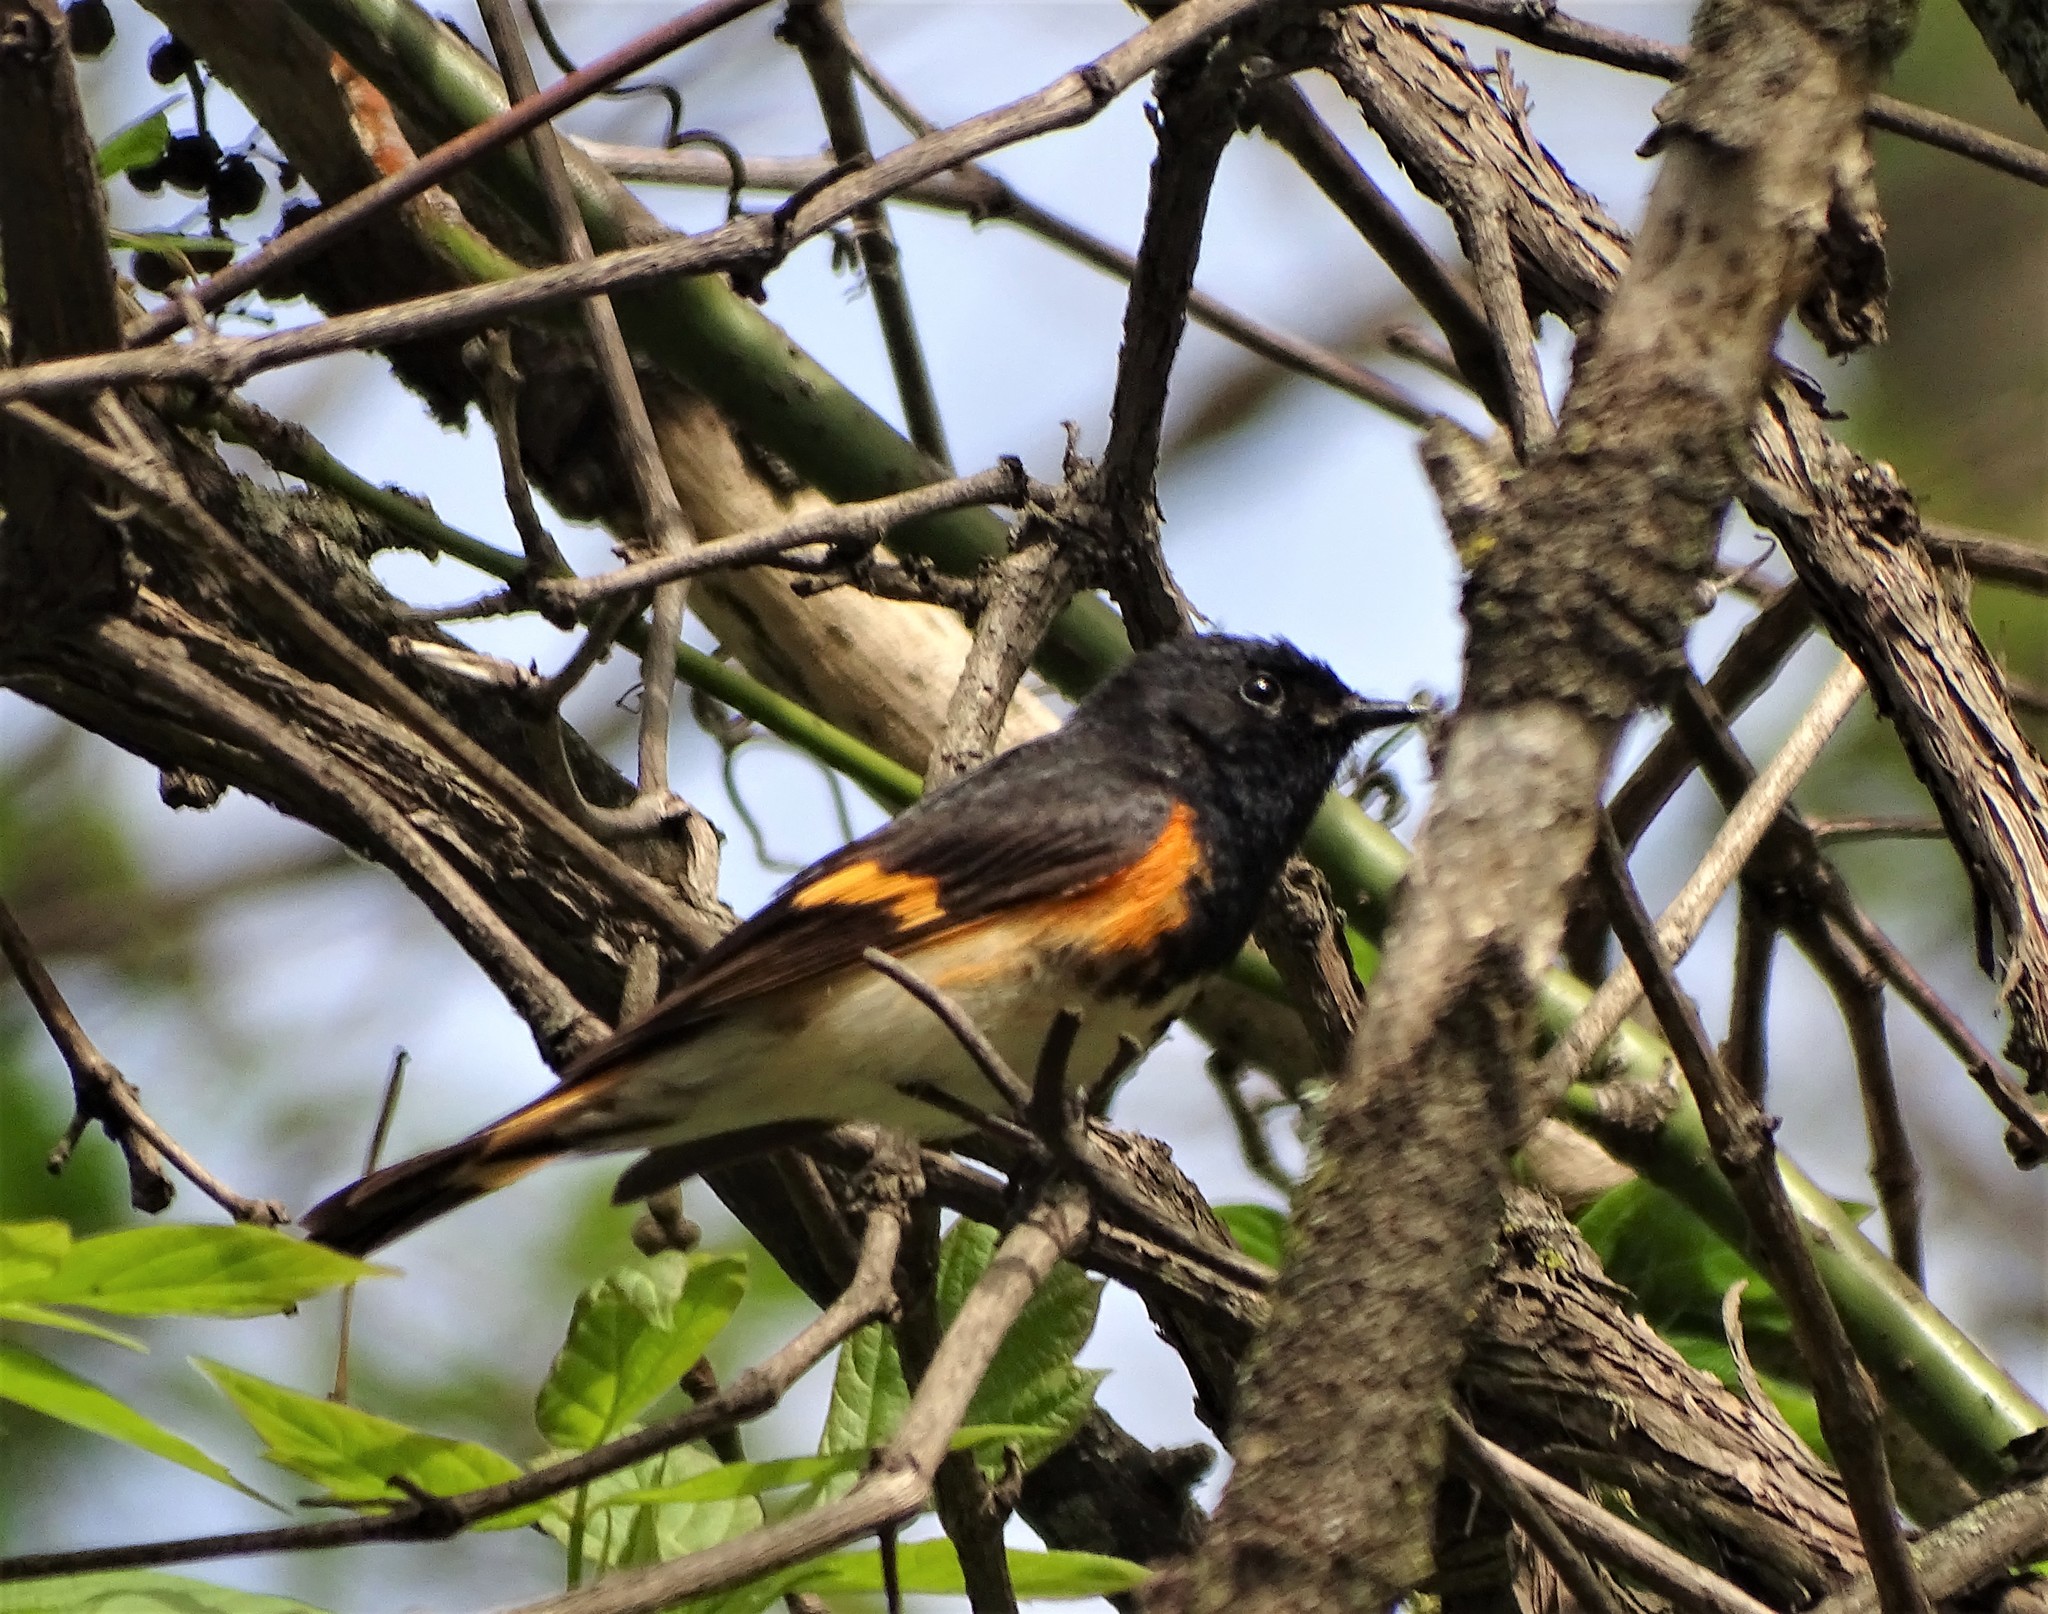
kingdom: Animalia
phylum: Chordata
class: Aves
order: Passeriformes
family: Parulidae
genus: Setophaga
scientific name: Setophaga ruticilla
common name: American redstart
